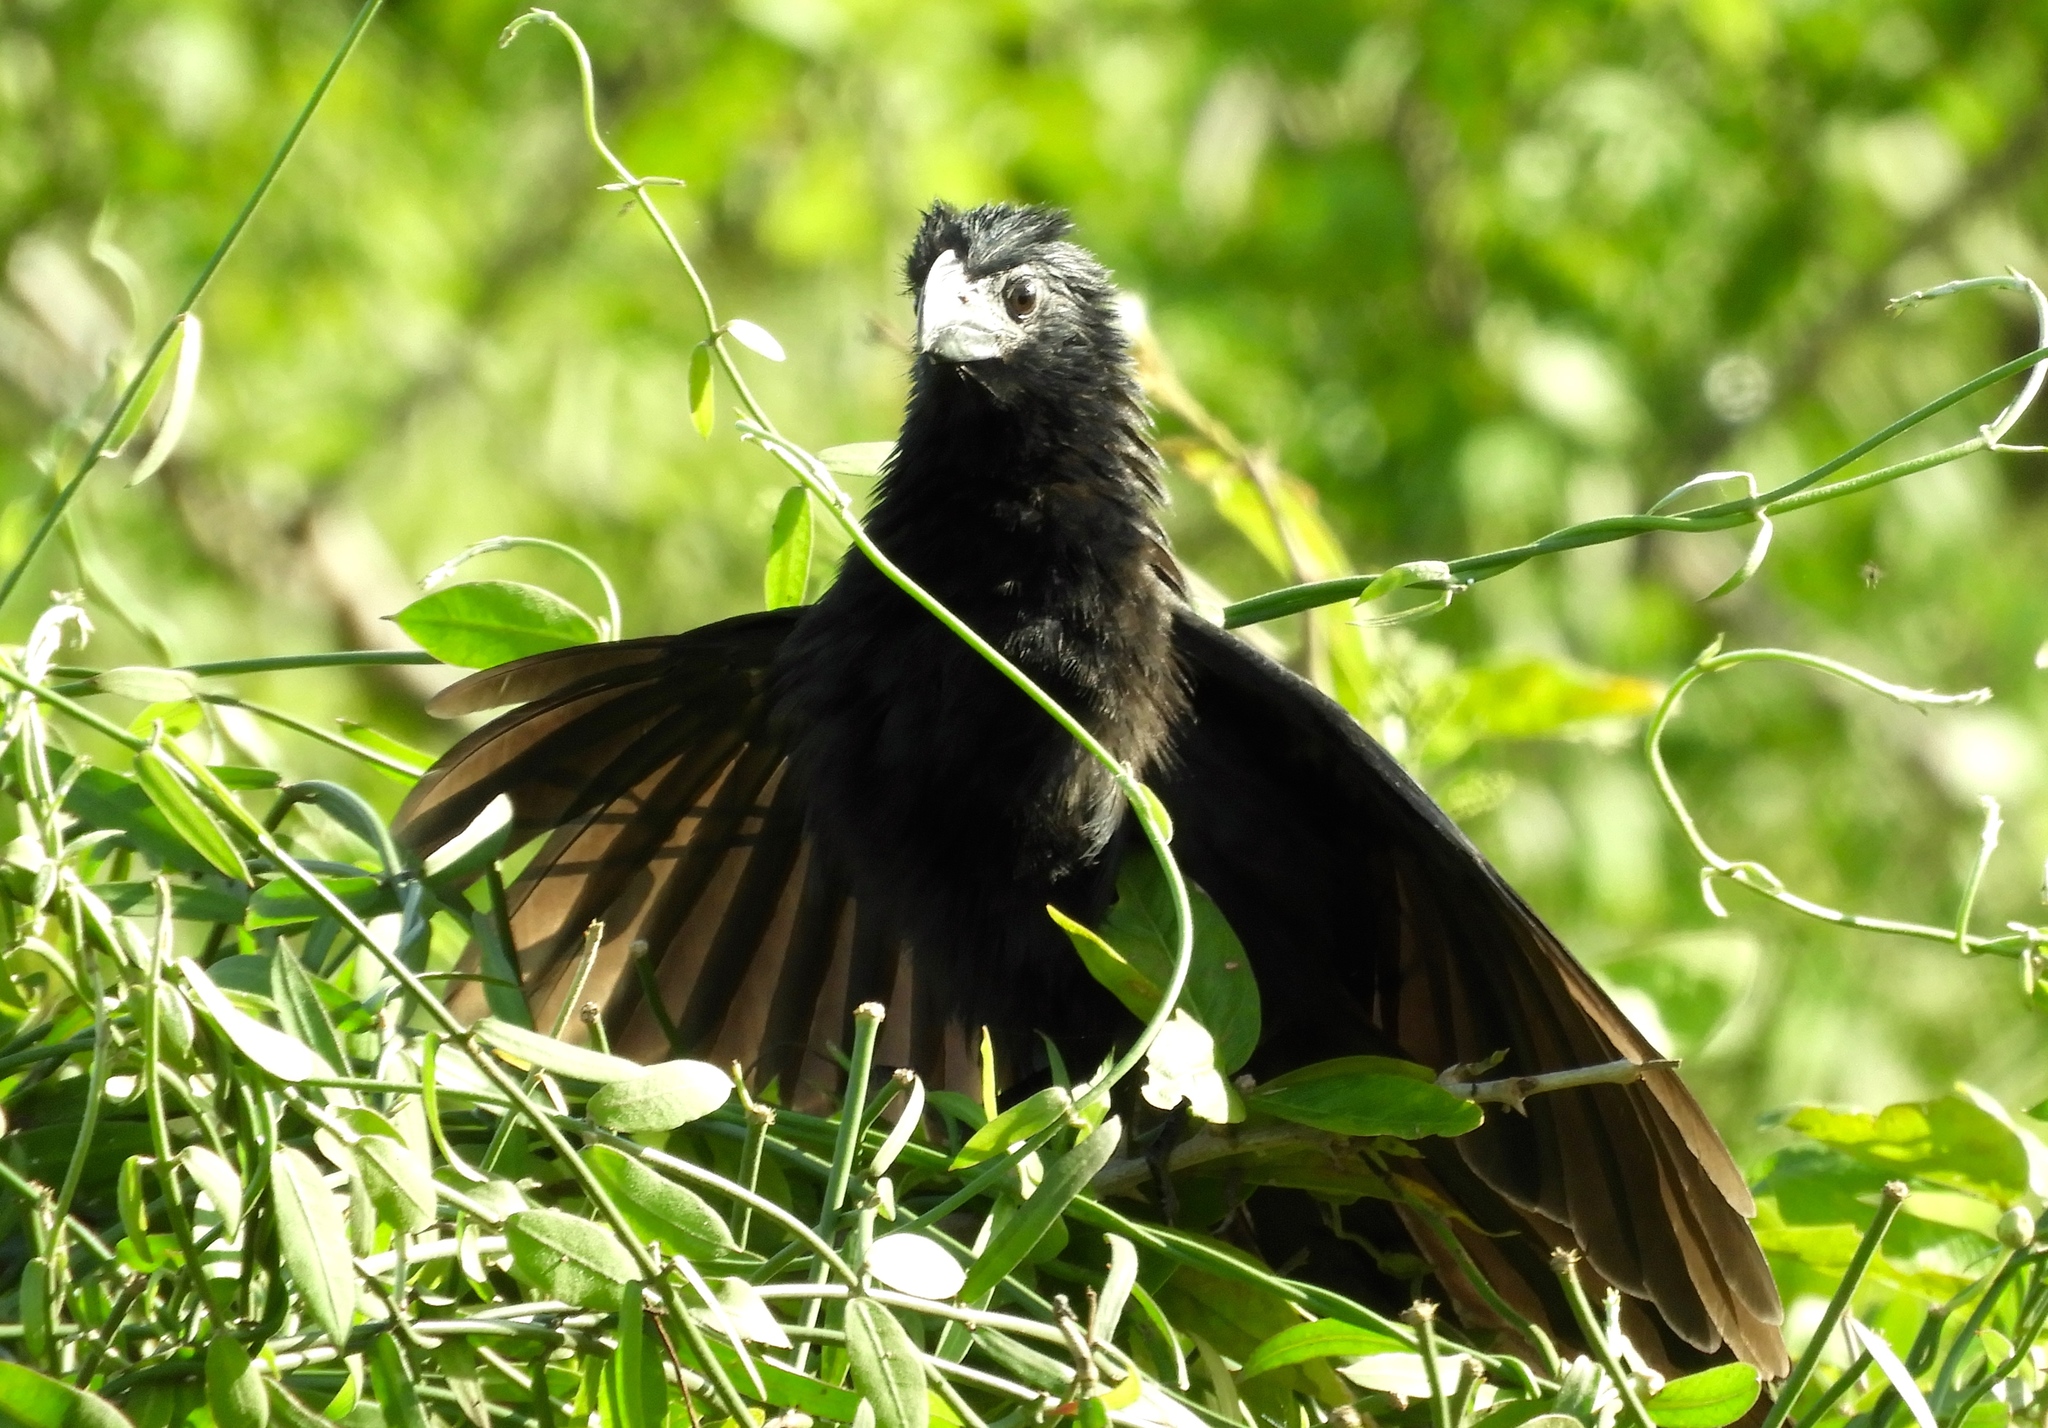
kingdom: Animalia
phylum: Chordata
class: Aves
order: Cuculiformes
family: Cuculidae
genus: Crotophaga
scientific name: Crotophaga sulcirostris
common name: Groove-billed ani
